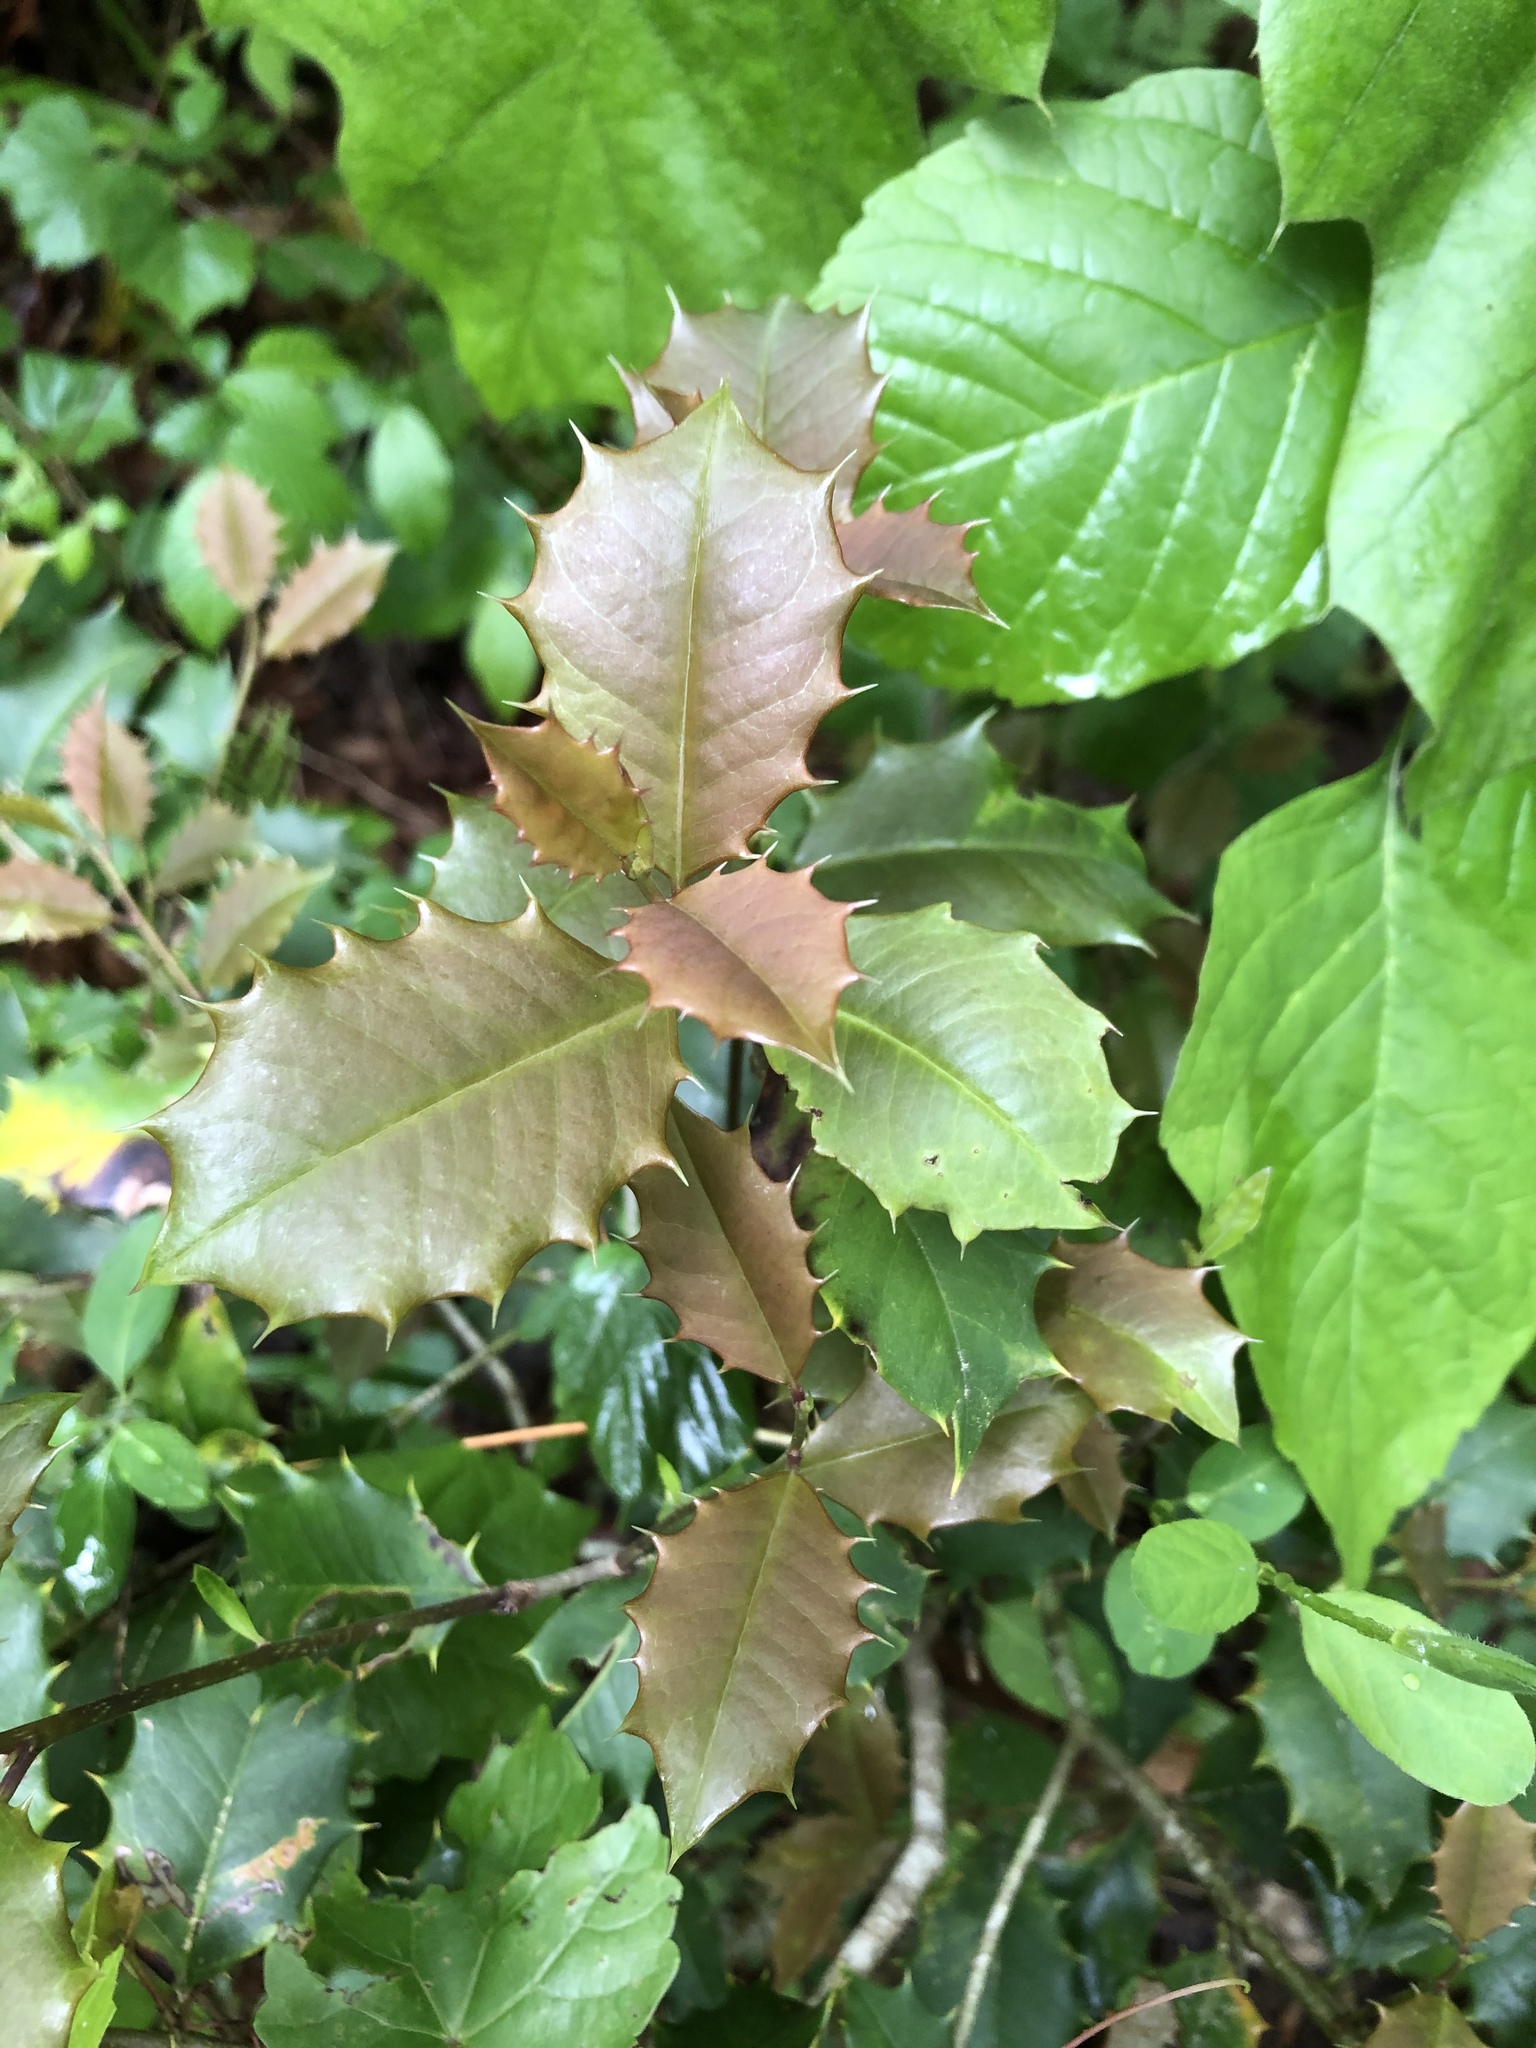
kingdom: Plantae
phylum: Tracheophyta
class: Magnoliopsida
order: Aquifoliales
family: Aquifoliaceae
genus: Ilex
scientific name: Ilex opaca
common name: American holly
